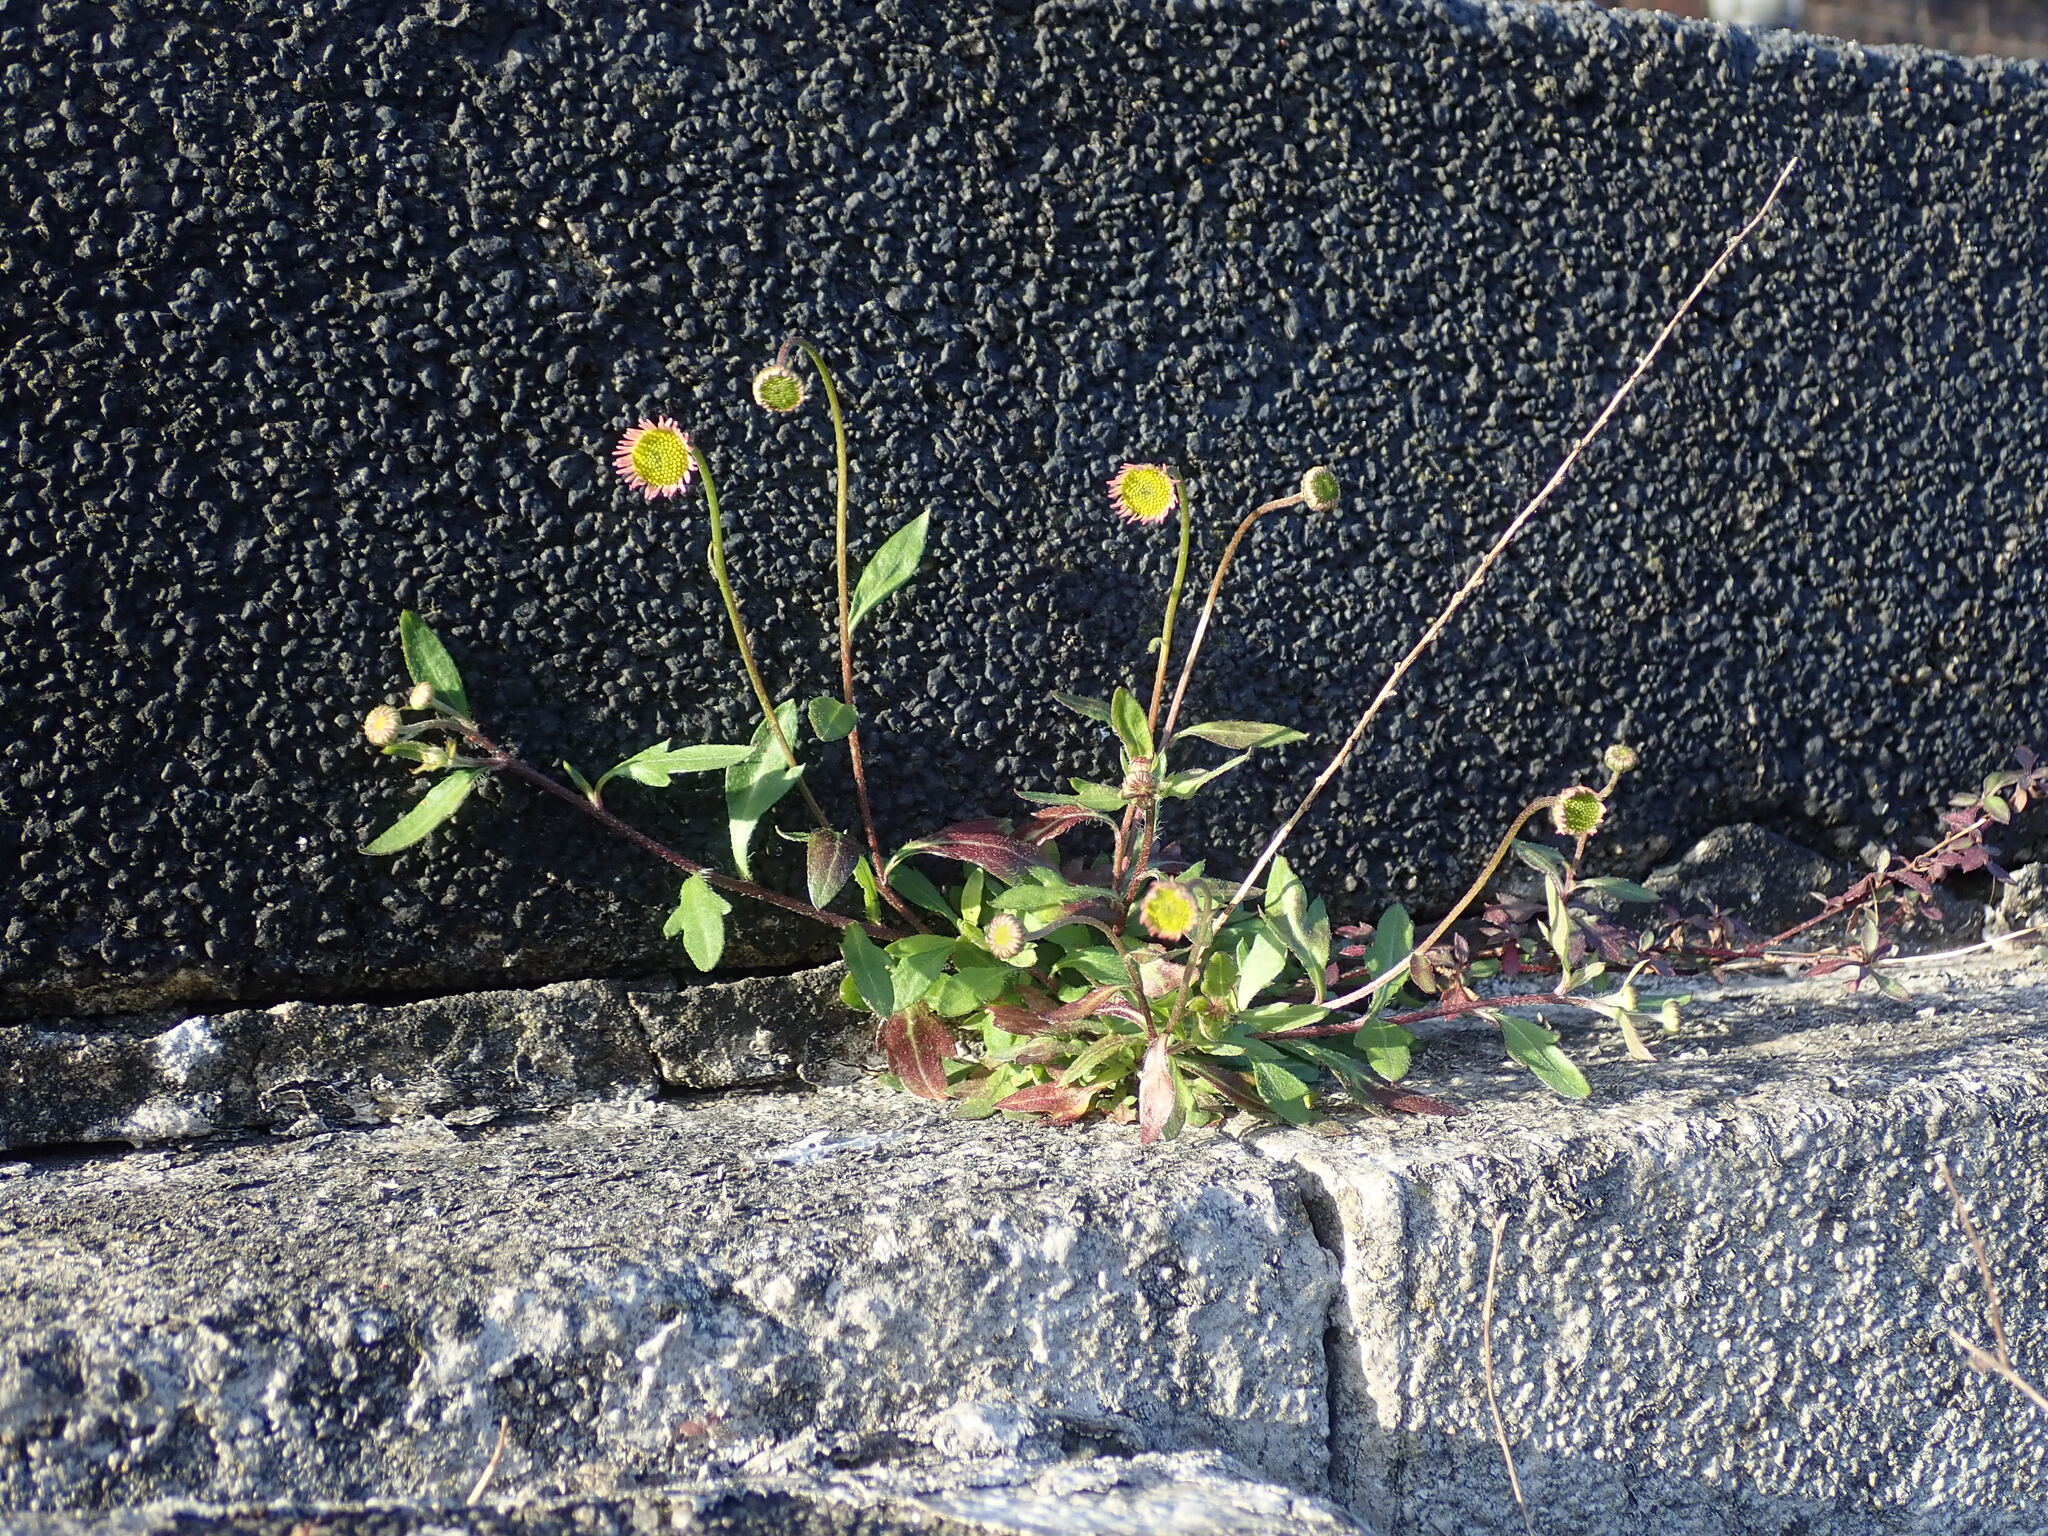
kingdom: Plantae
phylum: Tracheophyta
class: Magnoliopsida
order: Asterales
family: Asteraceae
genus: Erigeron
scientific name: Erigeron karvinskianus
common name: Mexican fleabane
